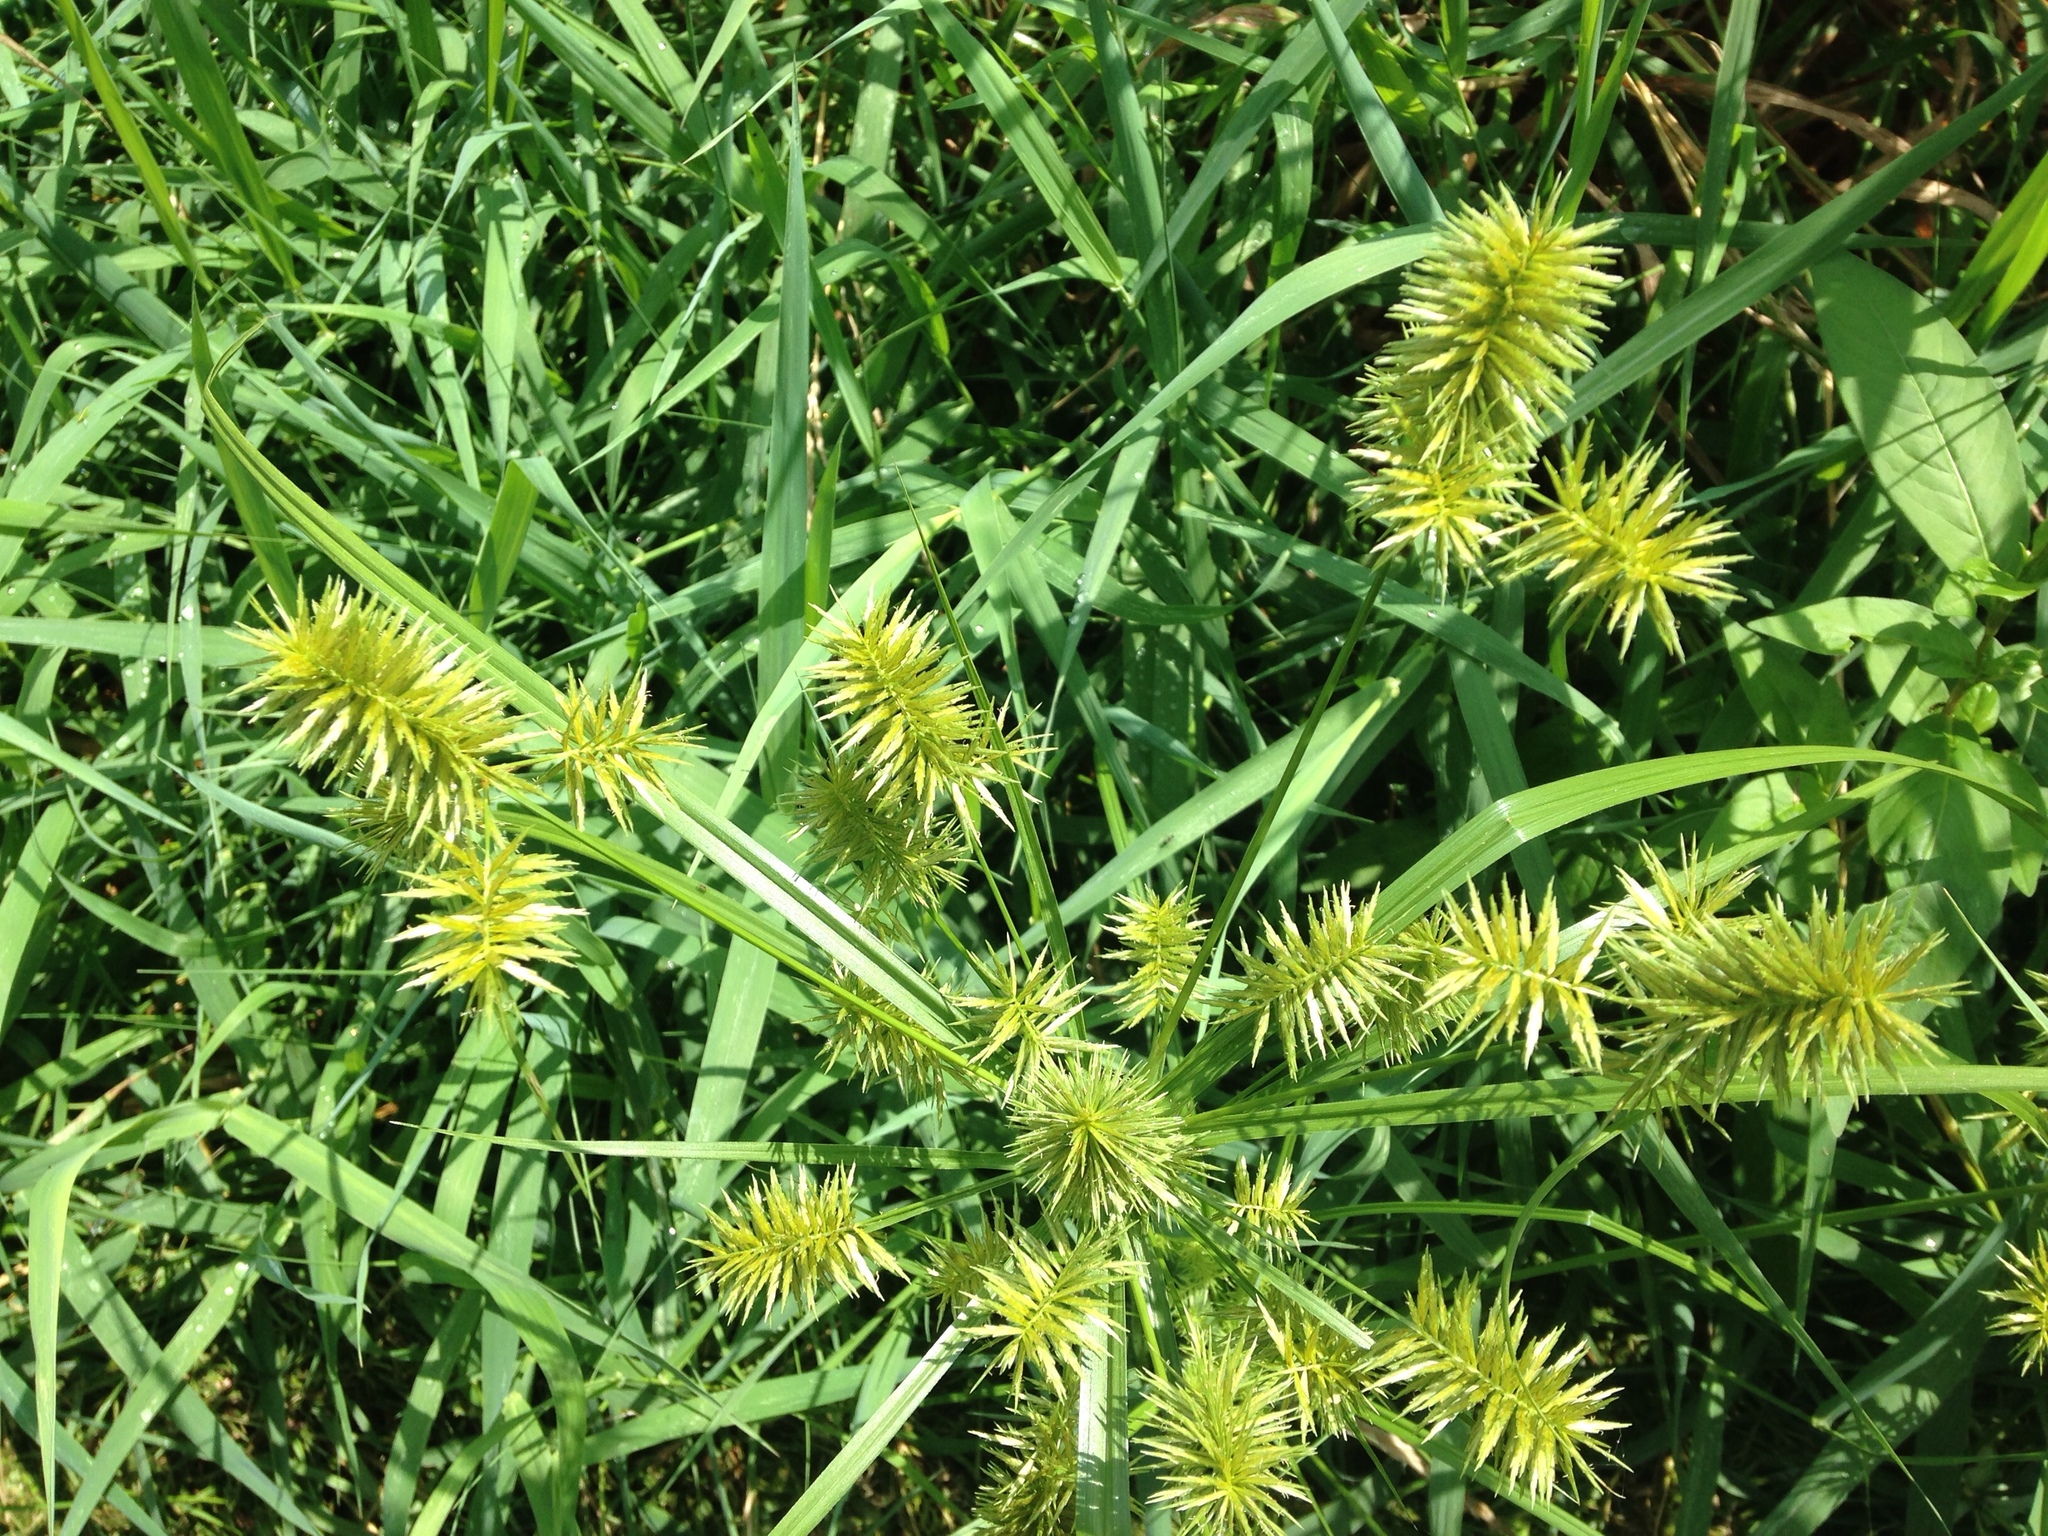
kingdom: Plantae
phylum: Tracheophyta
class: Liliopsida
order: Poales
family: Cyperaceae
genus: Cyperus
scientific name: Cyperus strigosus
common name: False nutsedge
